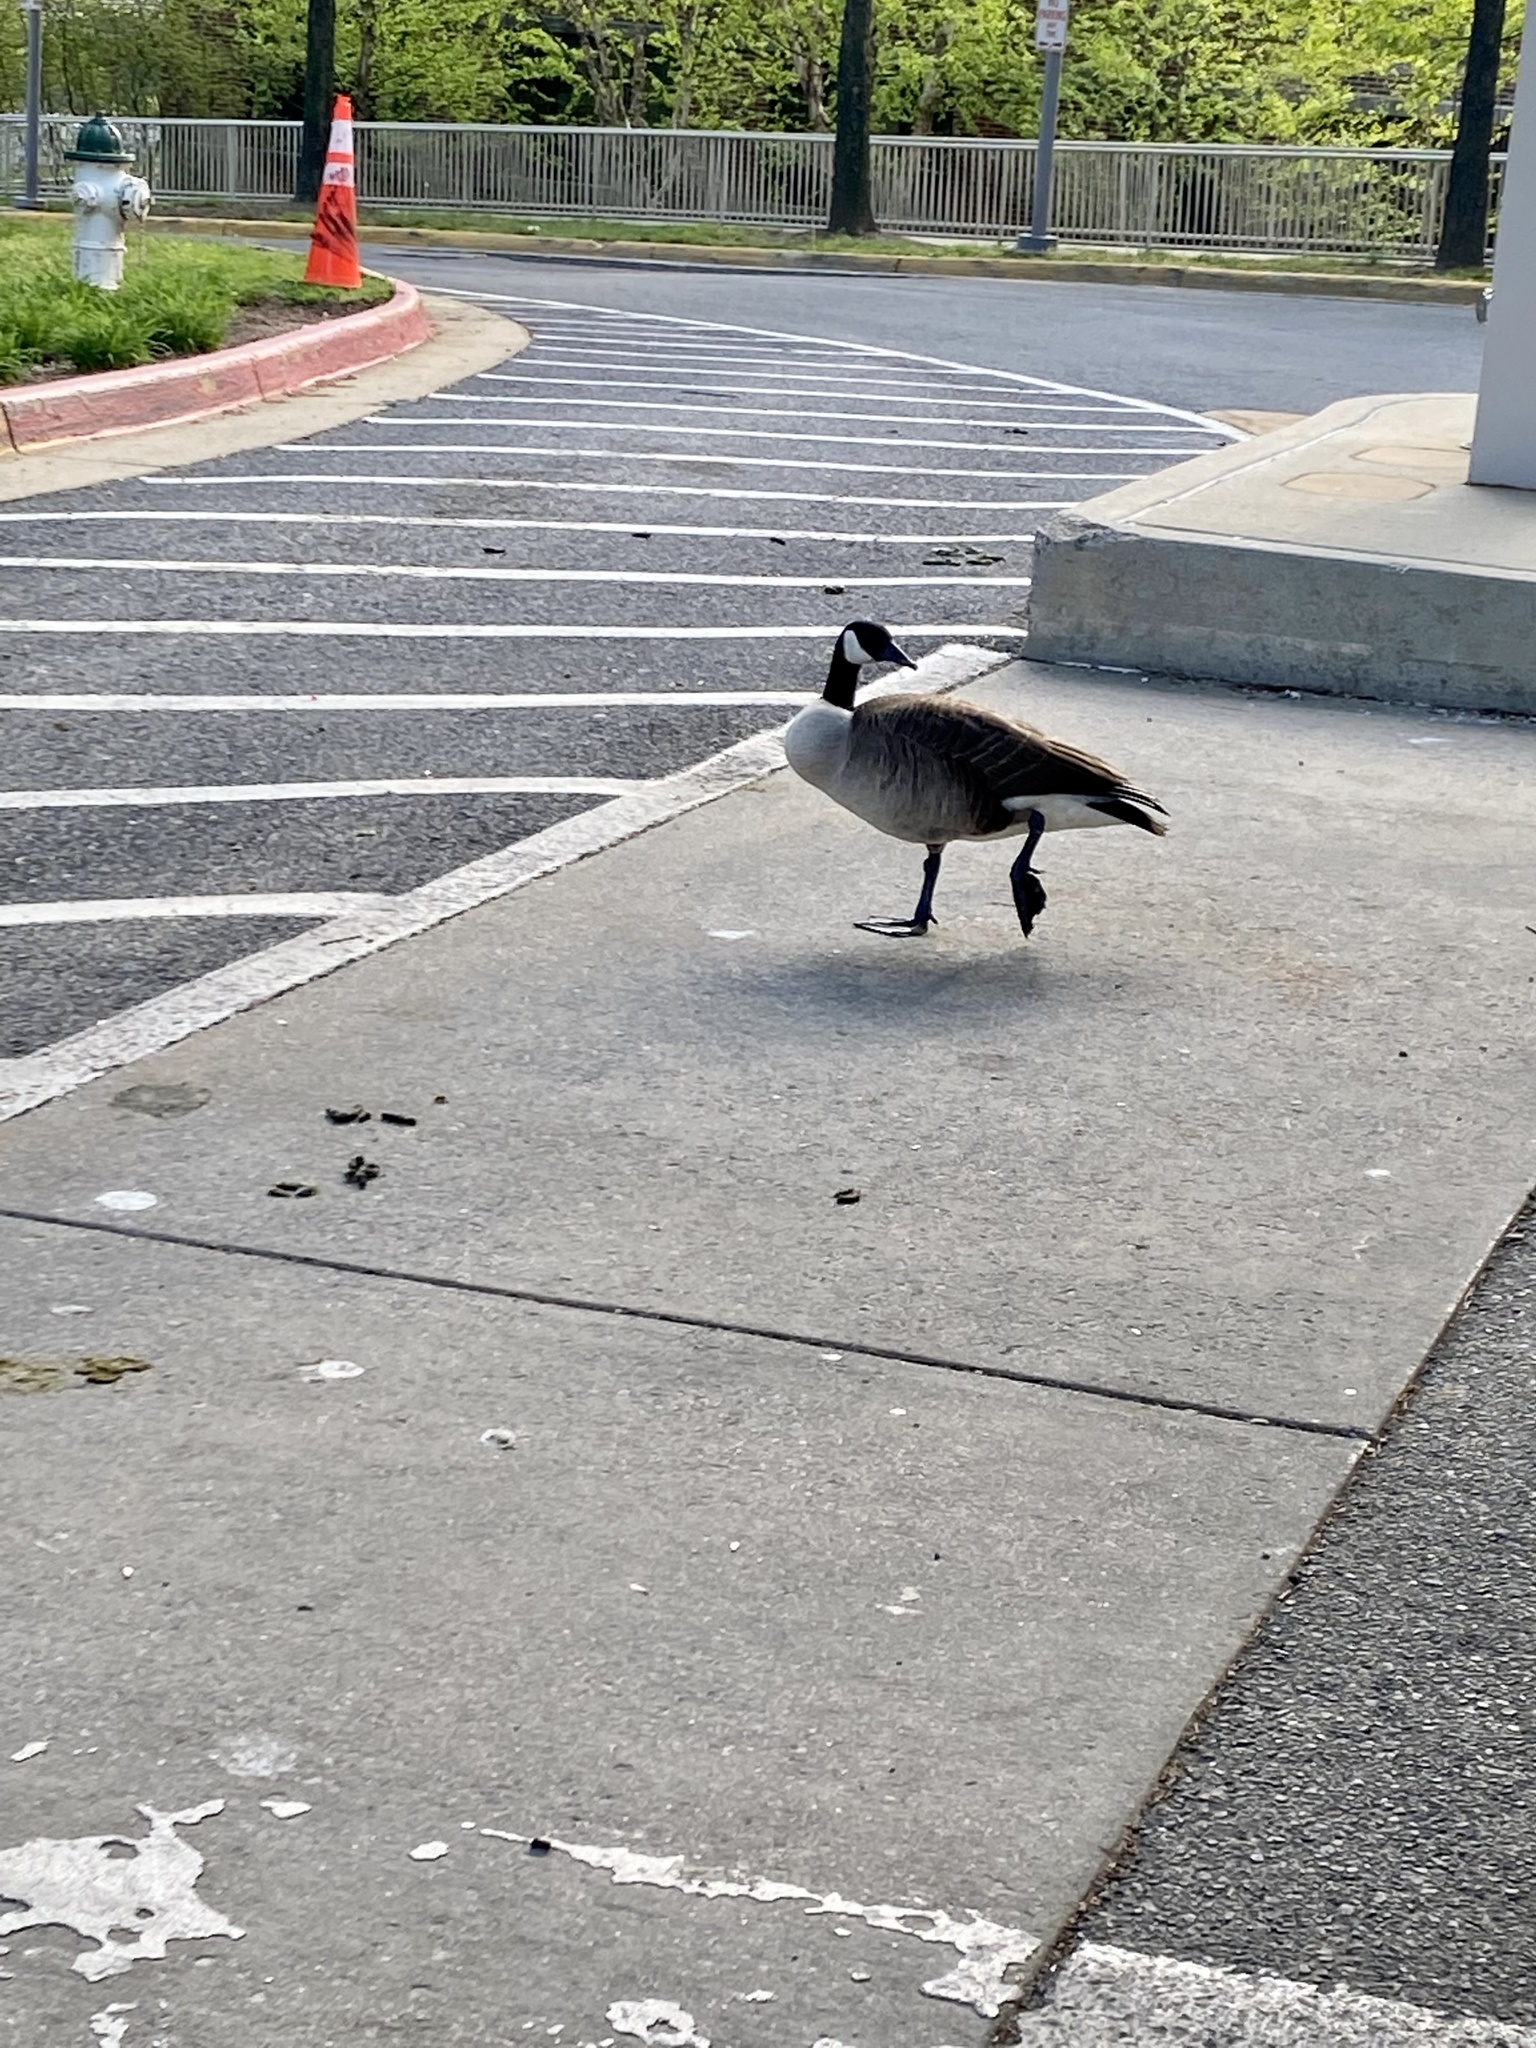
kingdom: Animalia
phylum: Chordata
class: Aves
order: Anseriformes
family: Anatidae
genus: Branta
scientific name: Branta canadensis
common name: Canada goose
